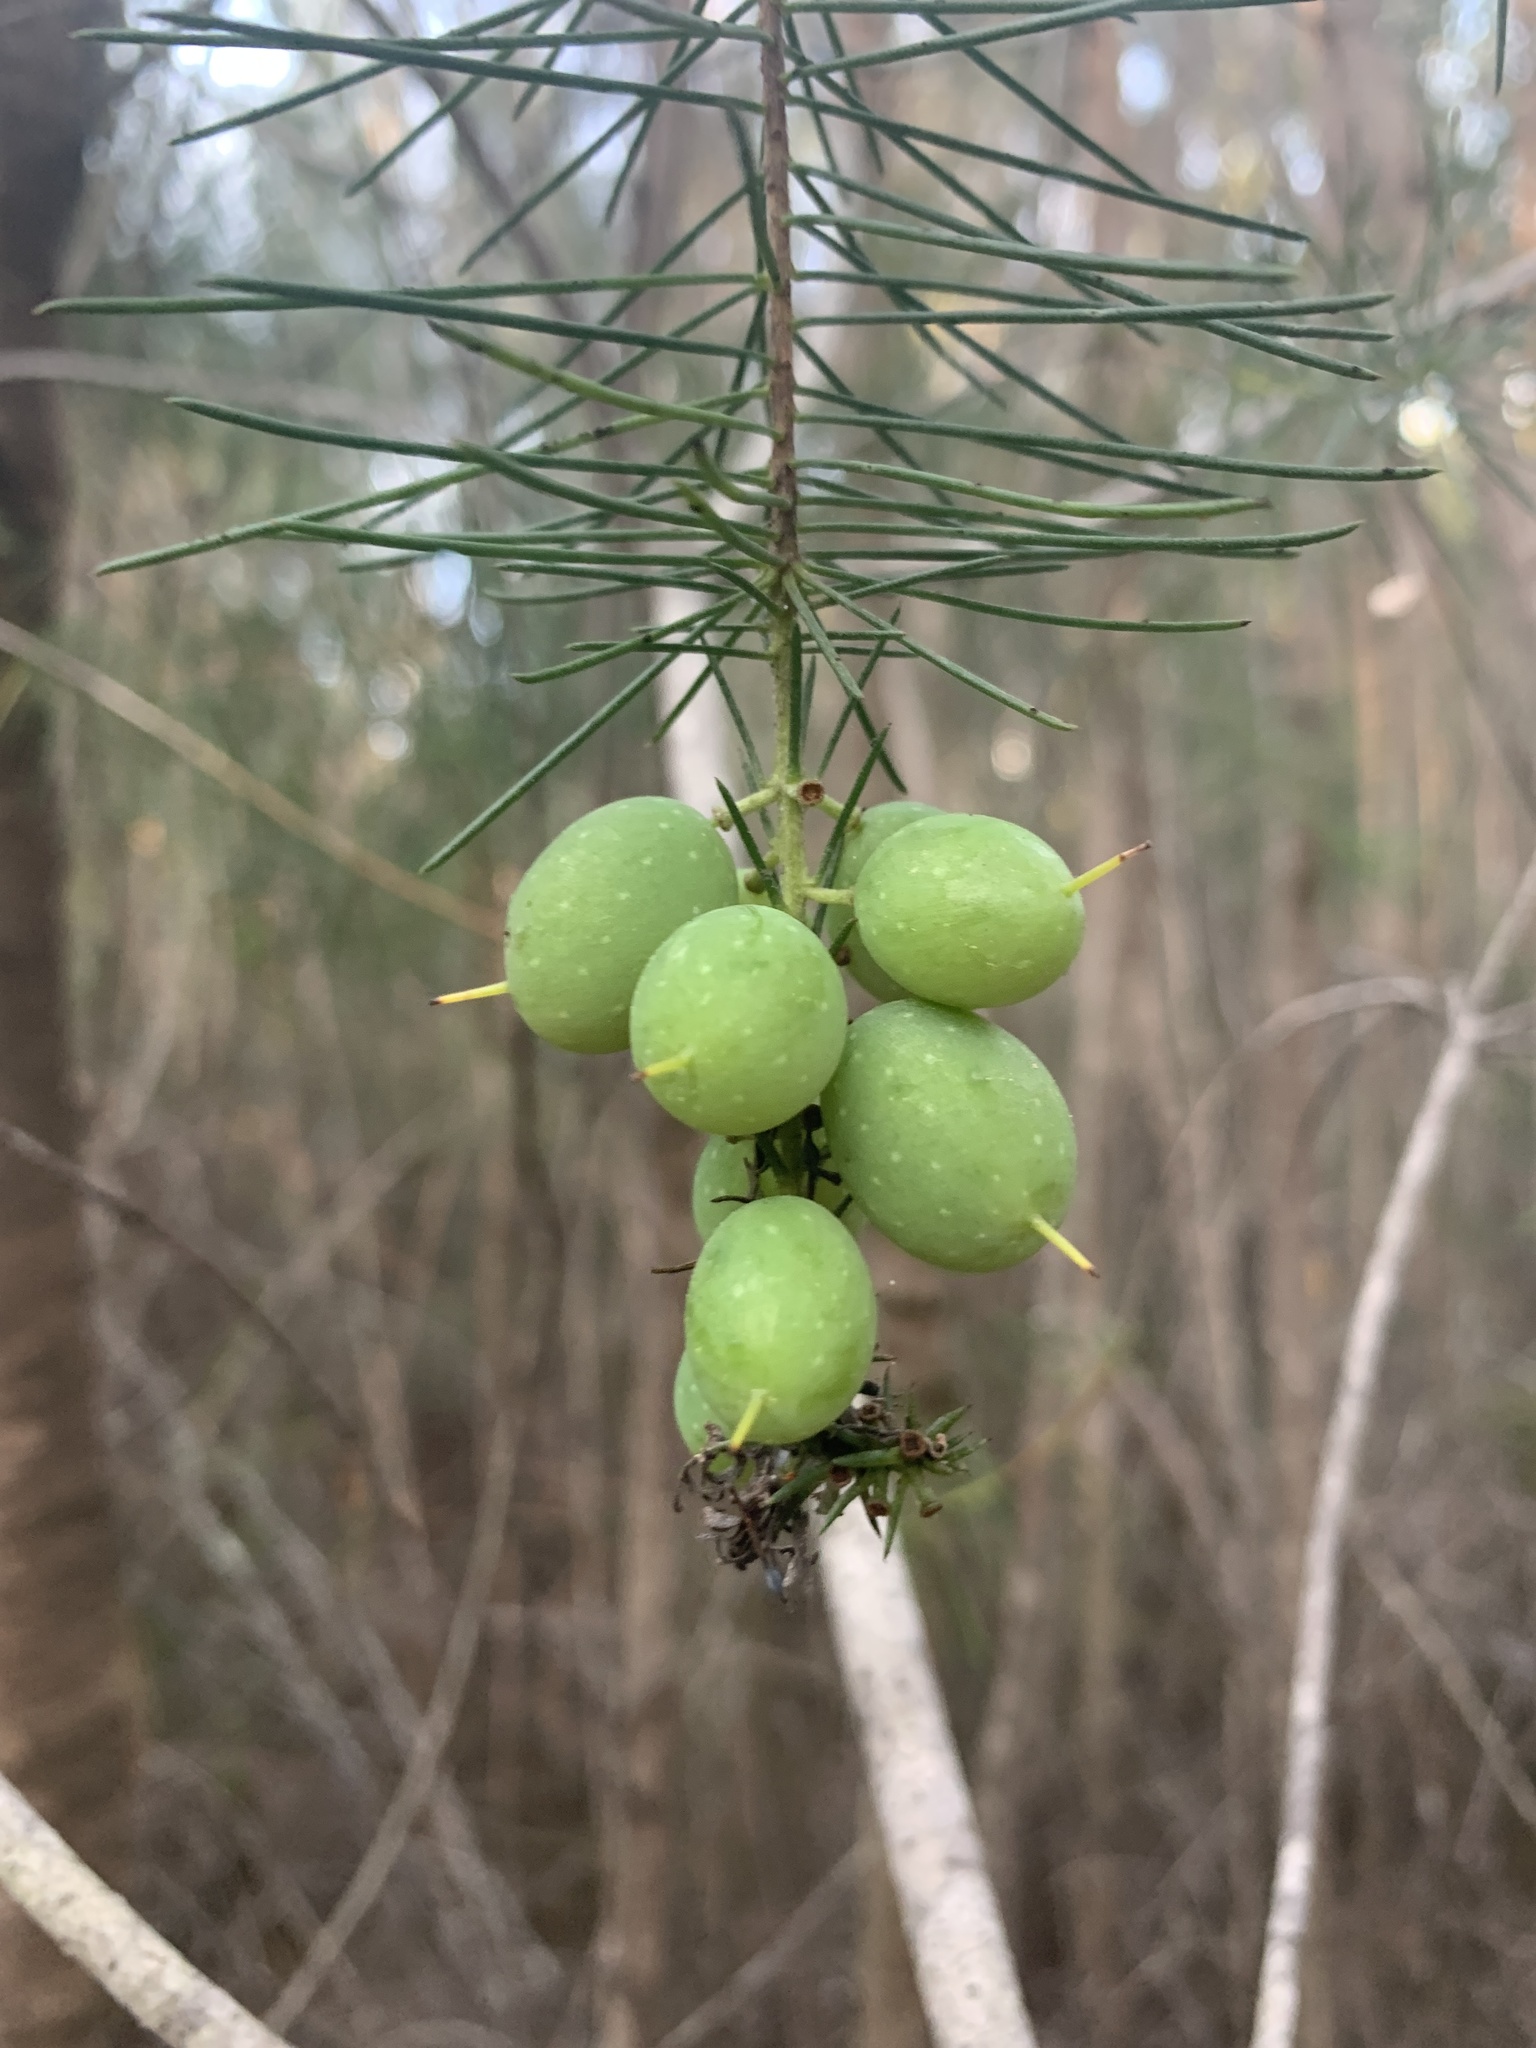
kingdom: Plantae
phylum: Tracheophyta
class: Magnoliopsida
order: Proteales
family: Proteaceae
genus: Persoonia
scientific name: Persoonia pinifolia
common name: Pine-leaf geebung
